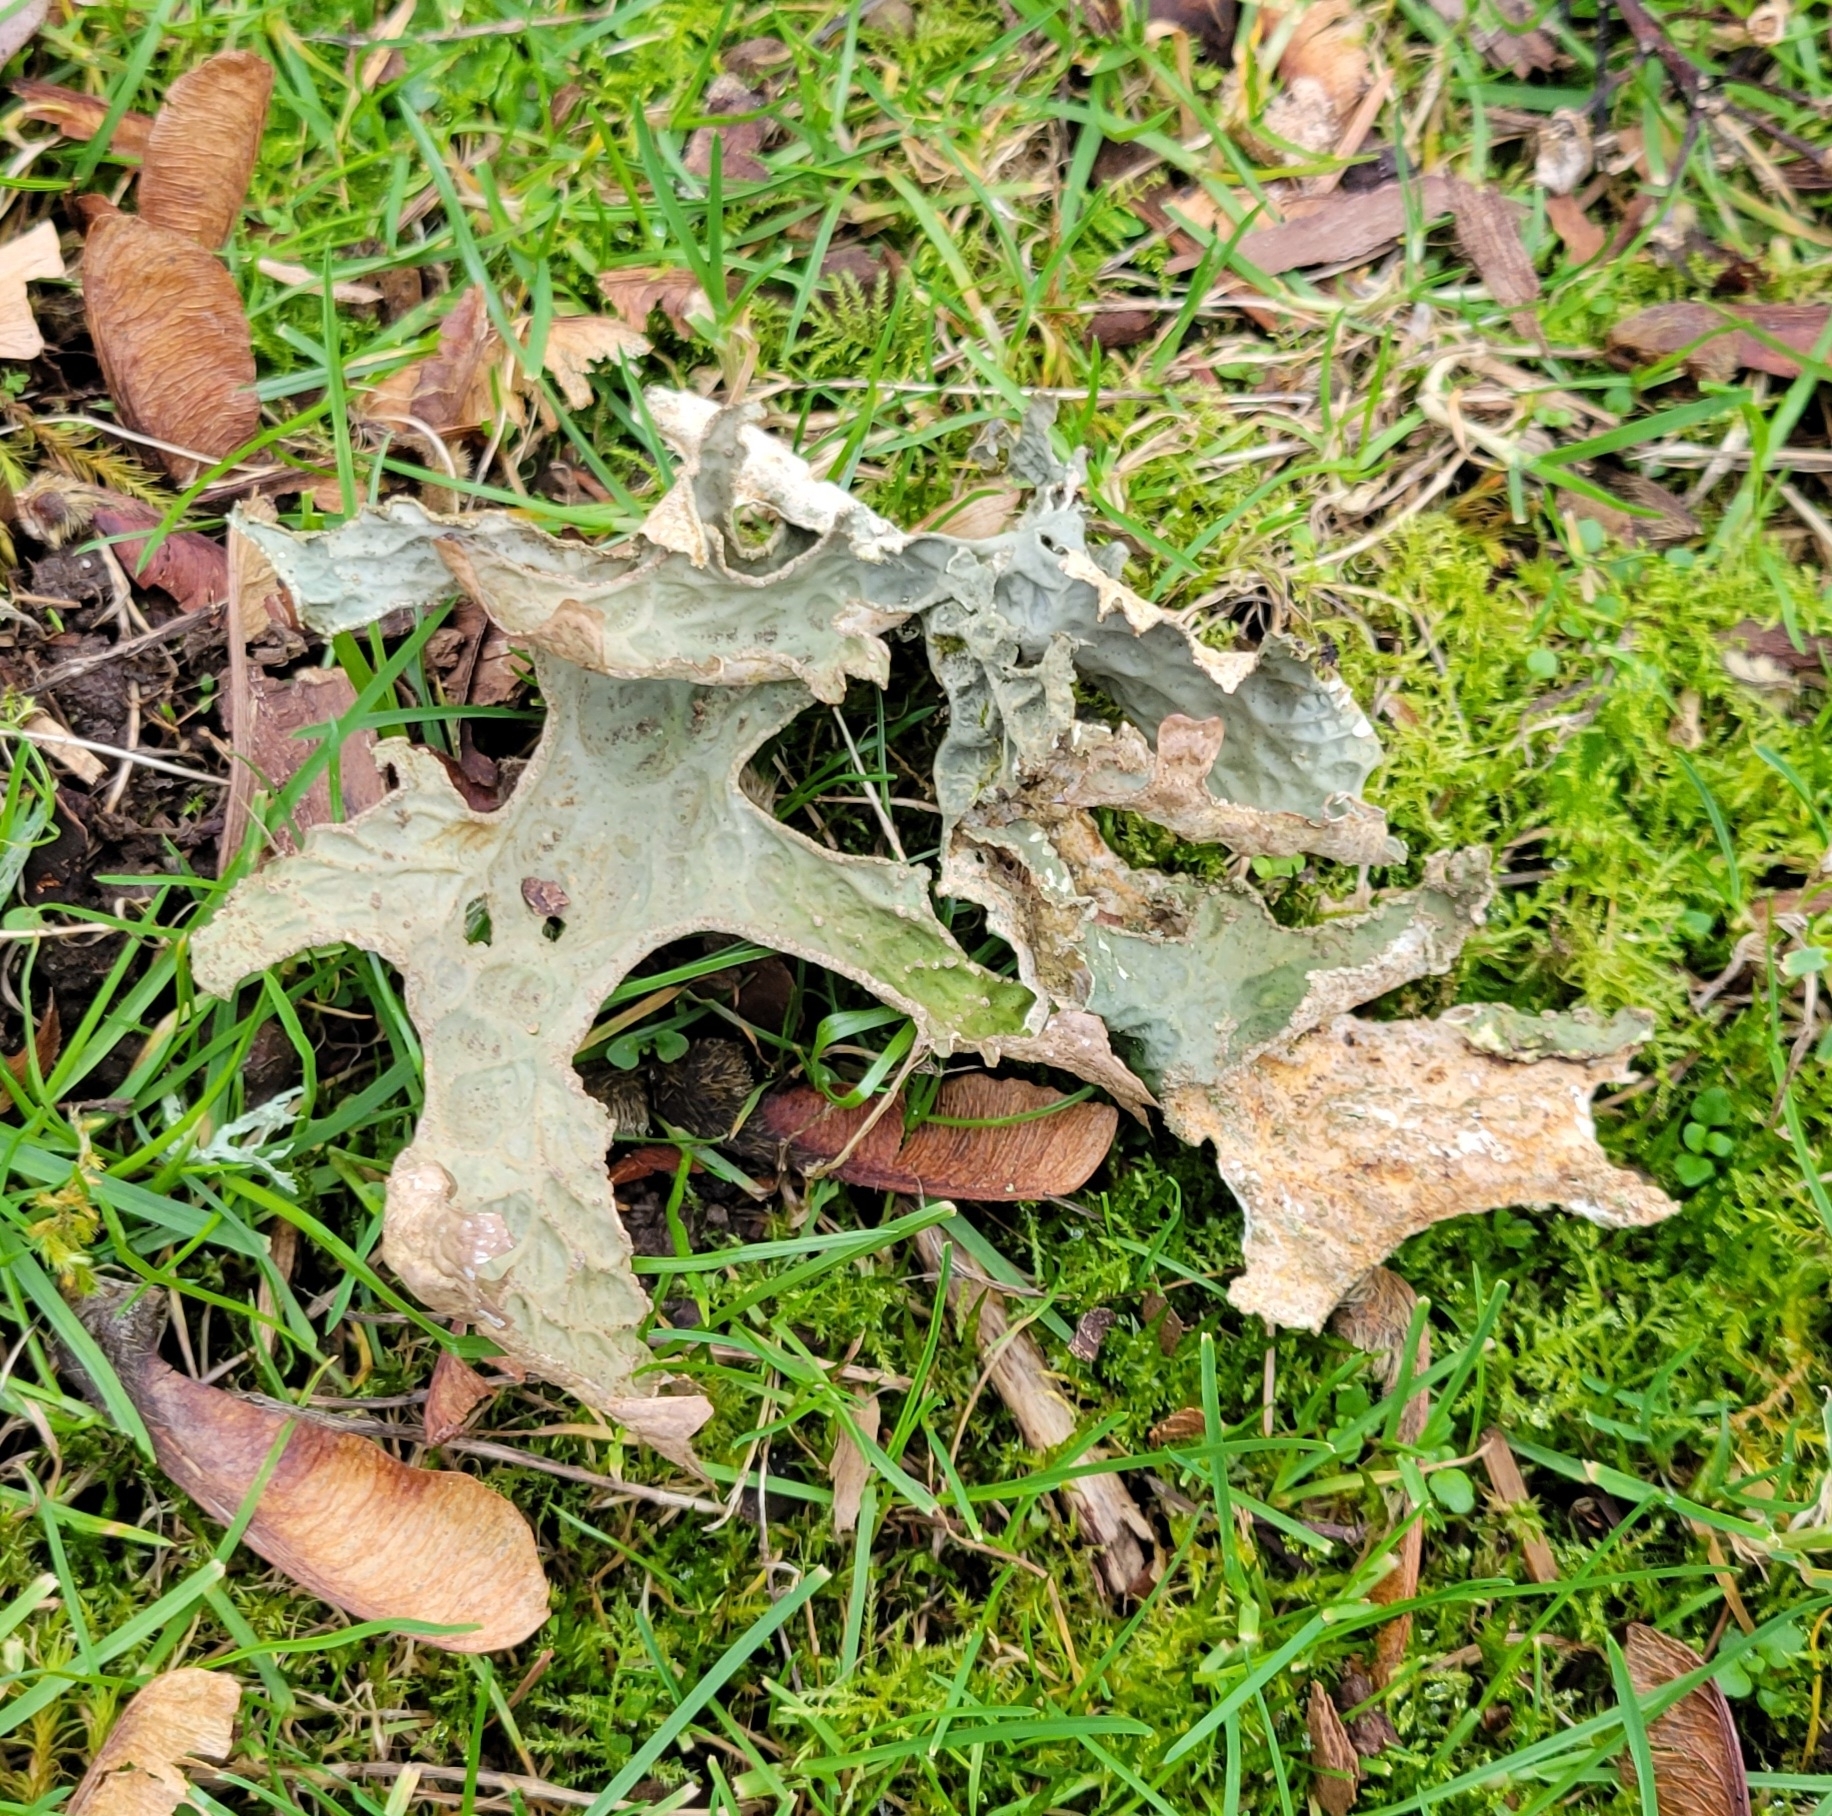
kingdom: Fungi
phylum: Ascomycota
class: Lecanoromycetes
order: Peltigerales
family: Lobariaceae
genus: Lobaria
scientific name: Lobaria pulmonaria
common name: Lungwort
